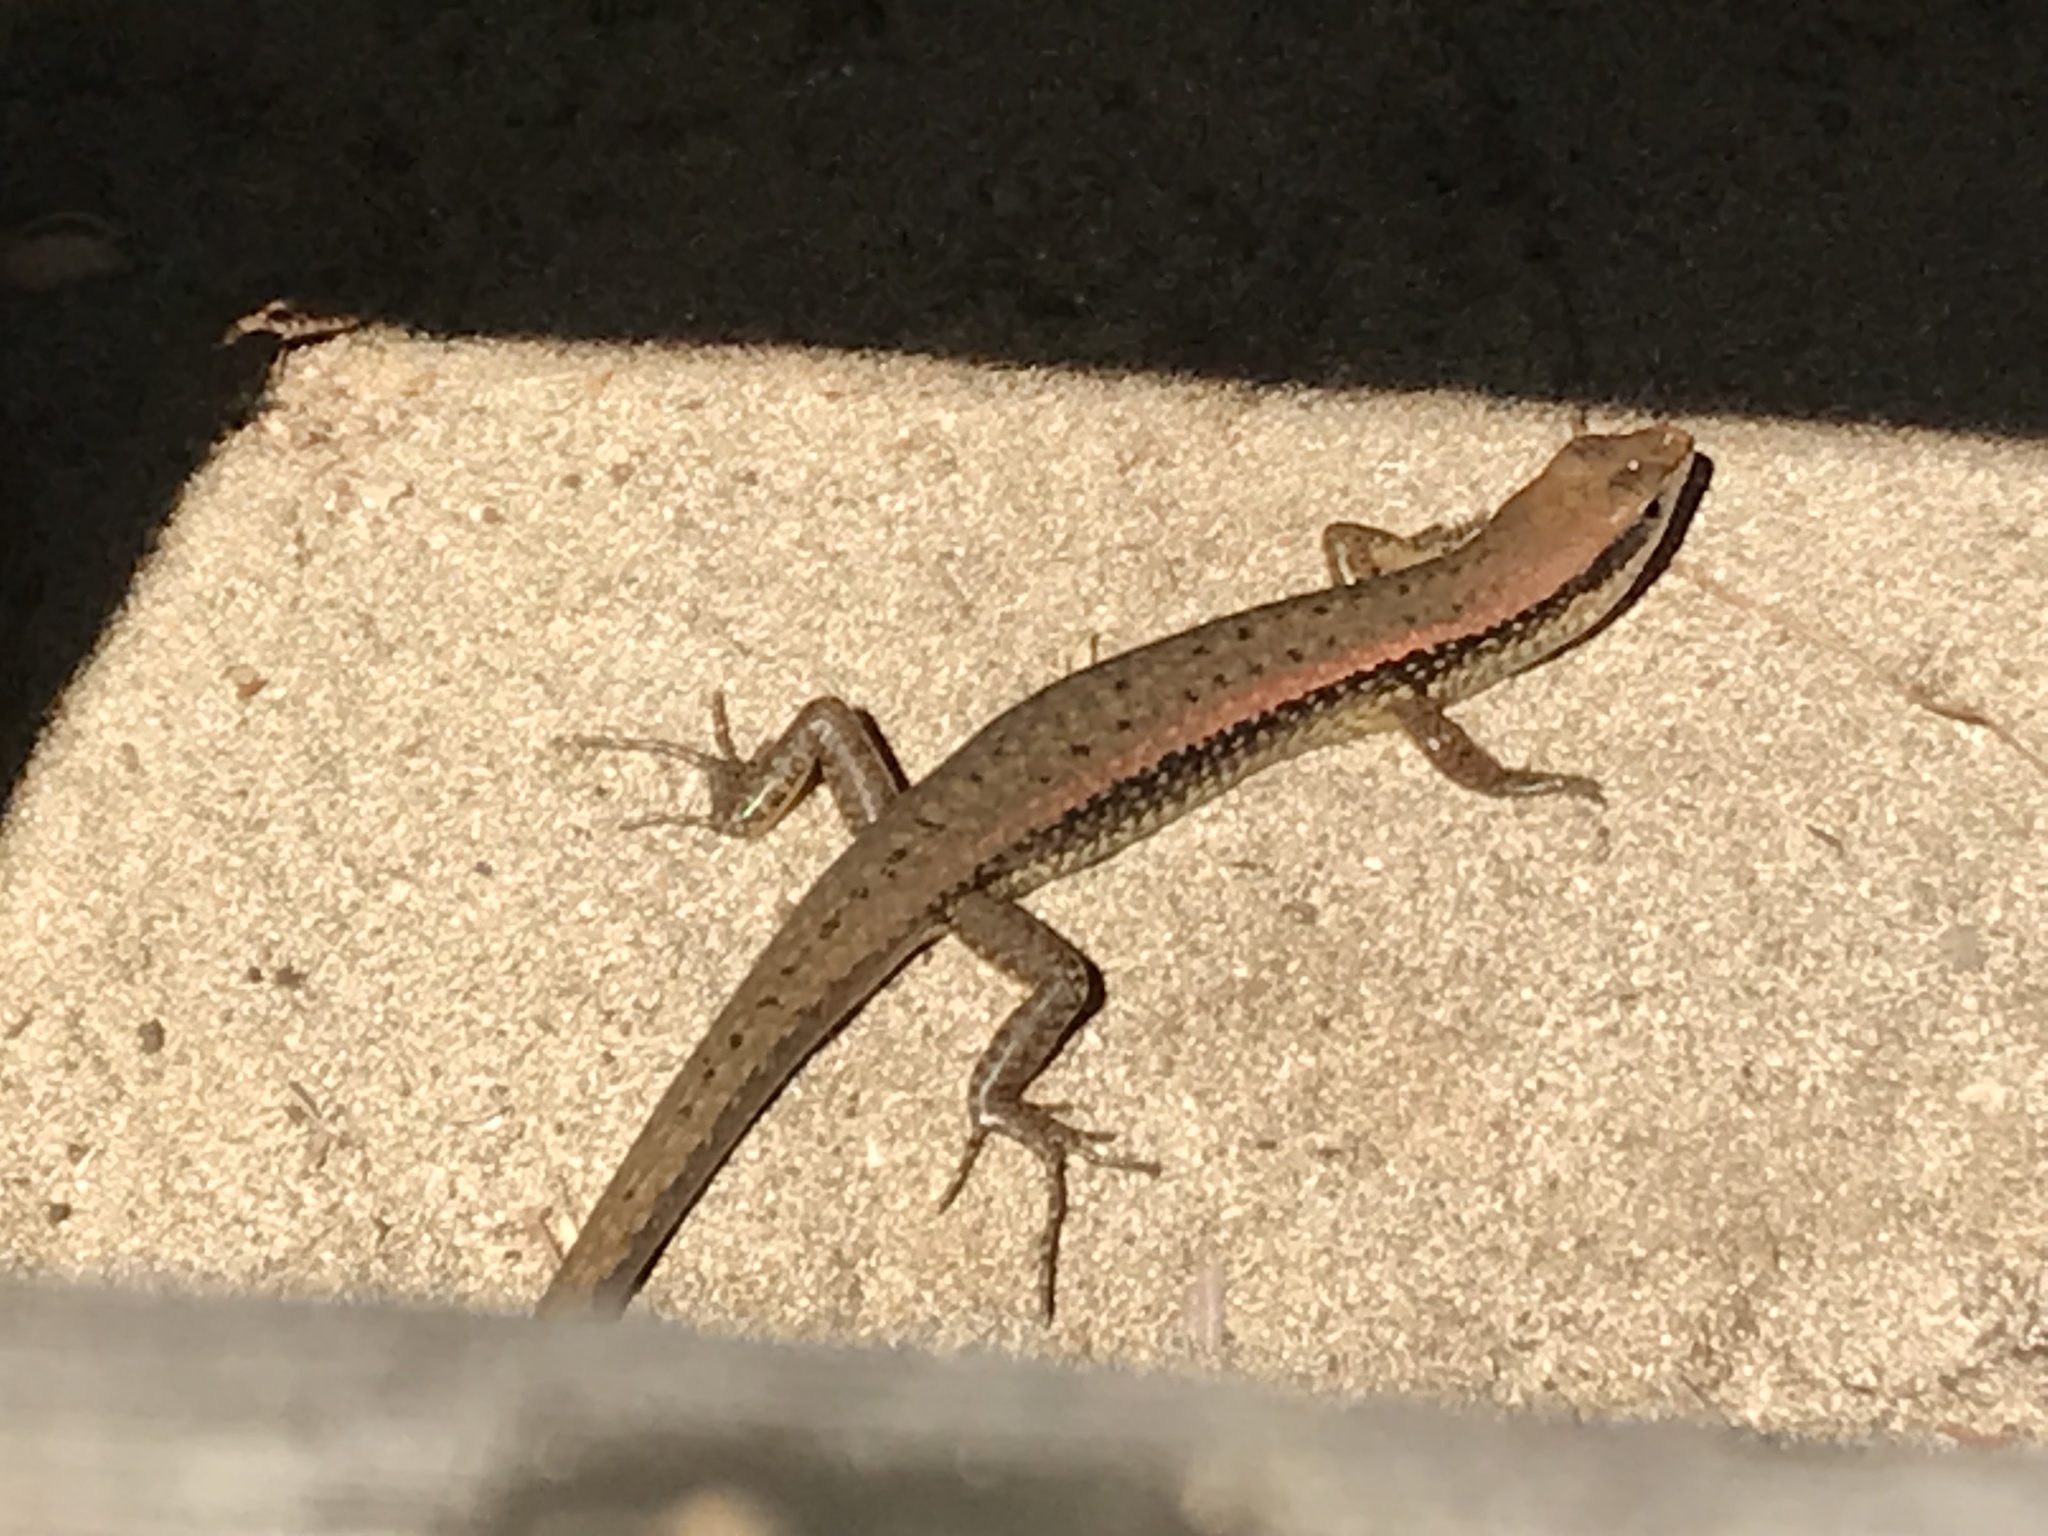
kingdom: Animalia
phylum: Chordata
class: Squamata
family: Scincidae
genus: Sphenomorphus
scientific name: Sphenomorphus maculatus
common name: Maculated forest skink
